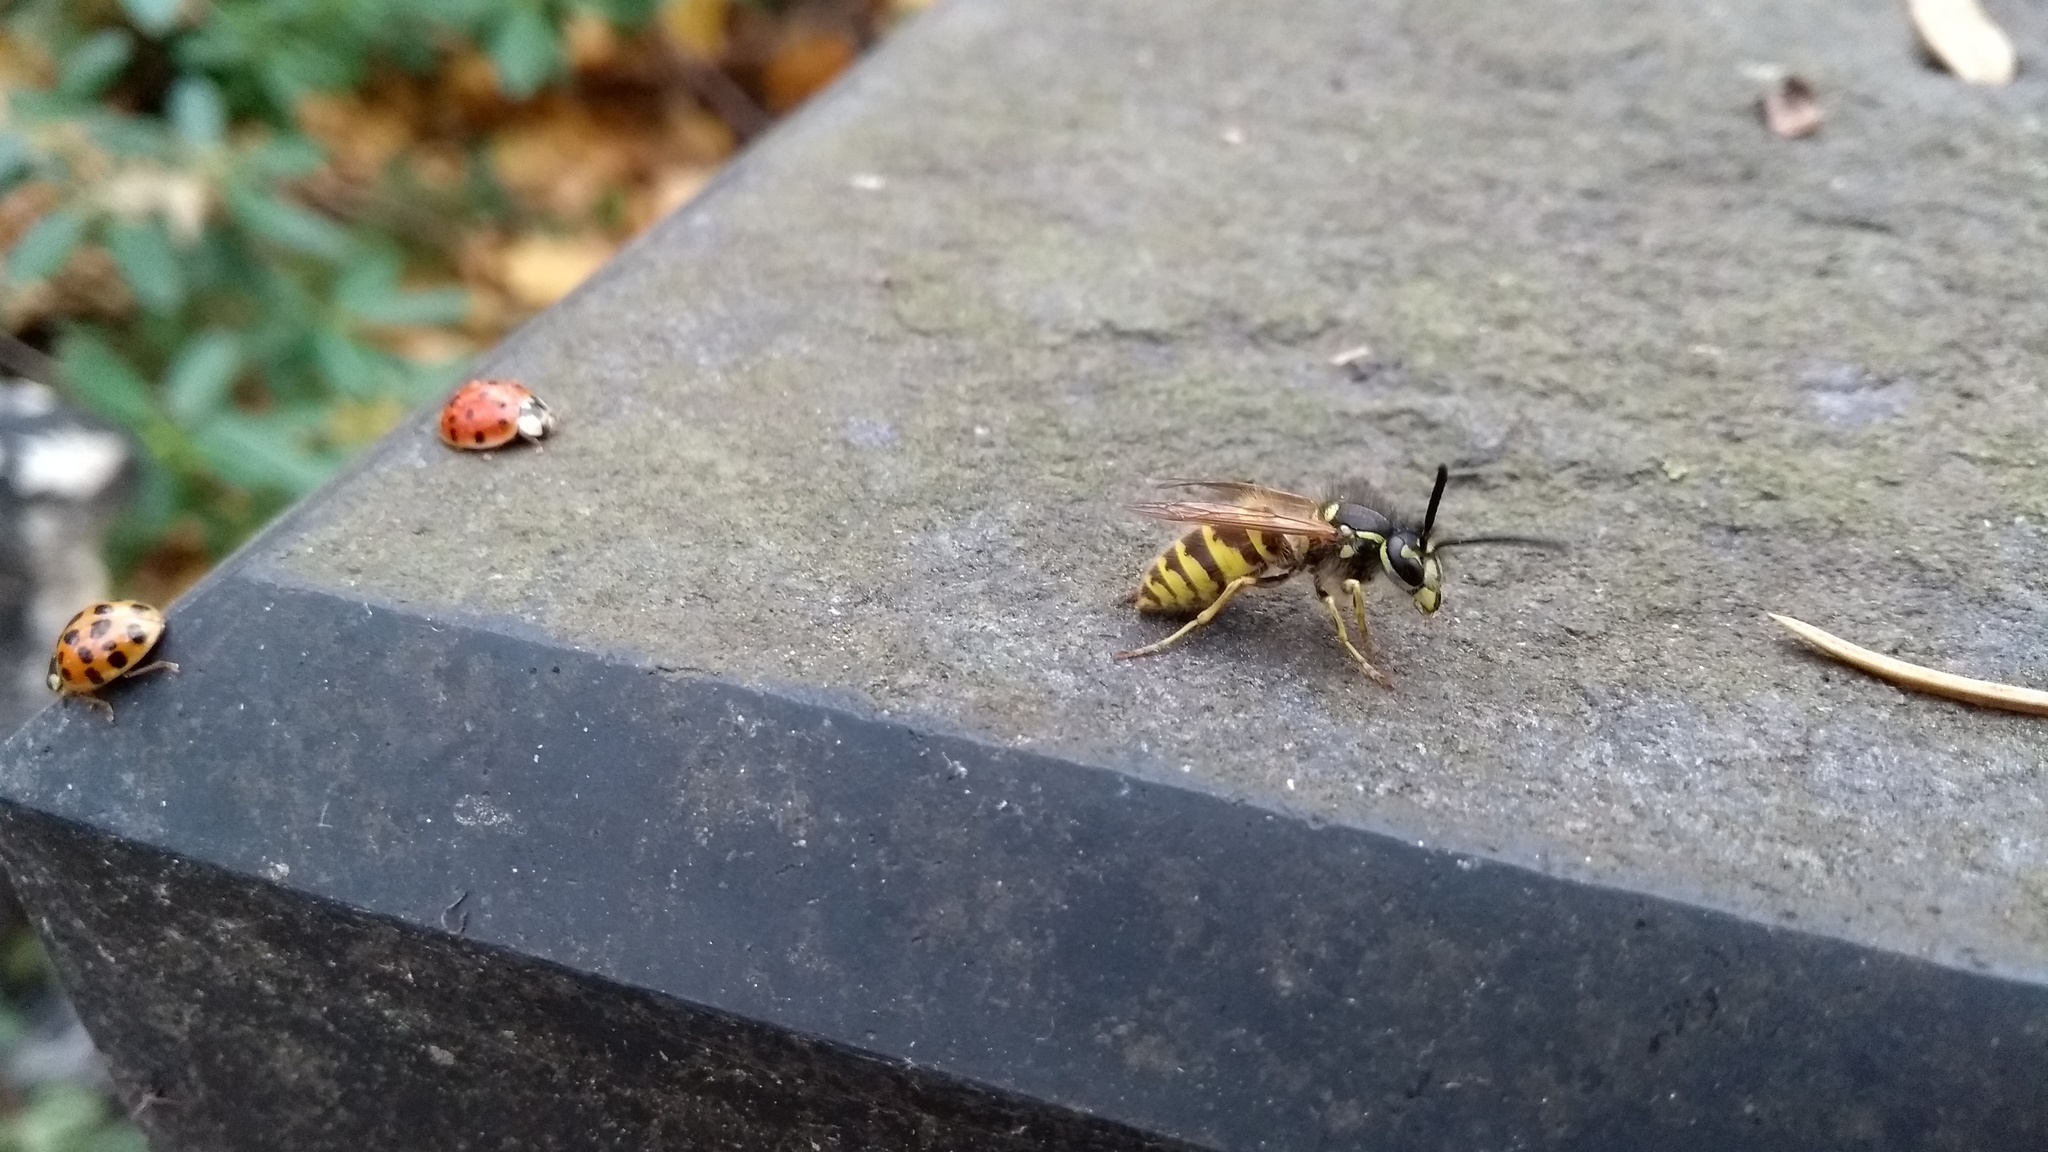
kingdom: Animalia
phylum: Arthropoda
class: Insecta
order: Hymenoptera
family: Vespidae
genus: Vespula
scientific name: Vespula vulgaris
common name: Common wasp
